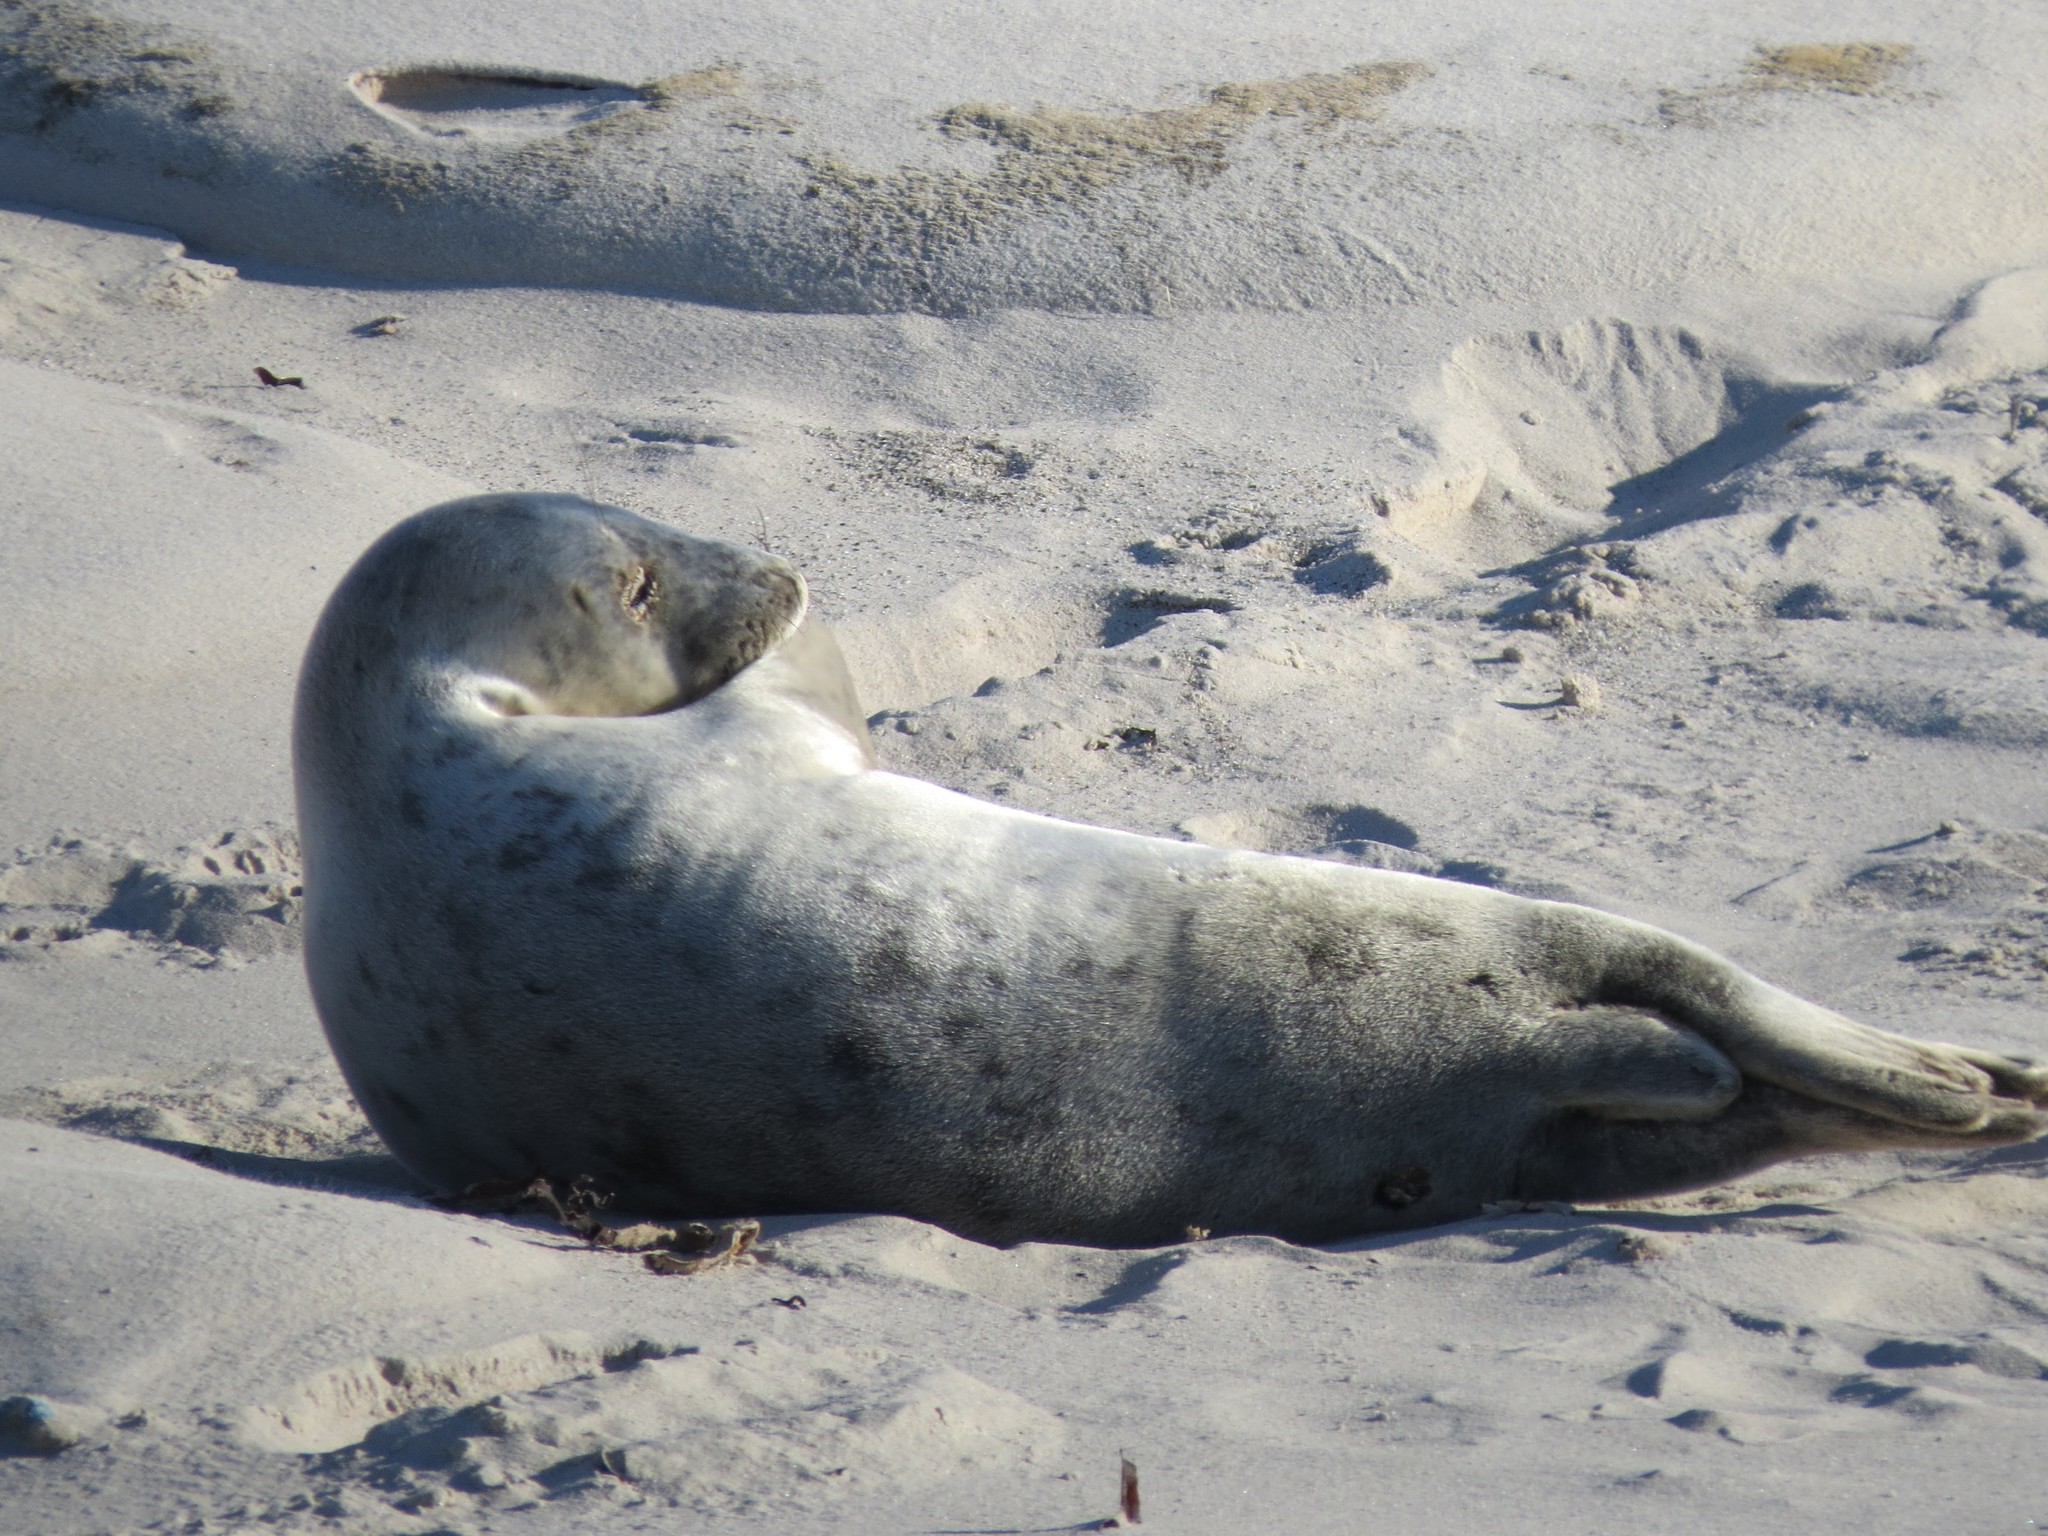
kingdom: Animalia
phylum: Chordata
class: Mammalia
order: Carnivora
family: Phocidae
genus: Halichoerus
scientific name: Halichoerus grypus
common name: Grey seal
